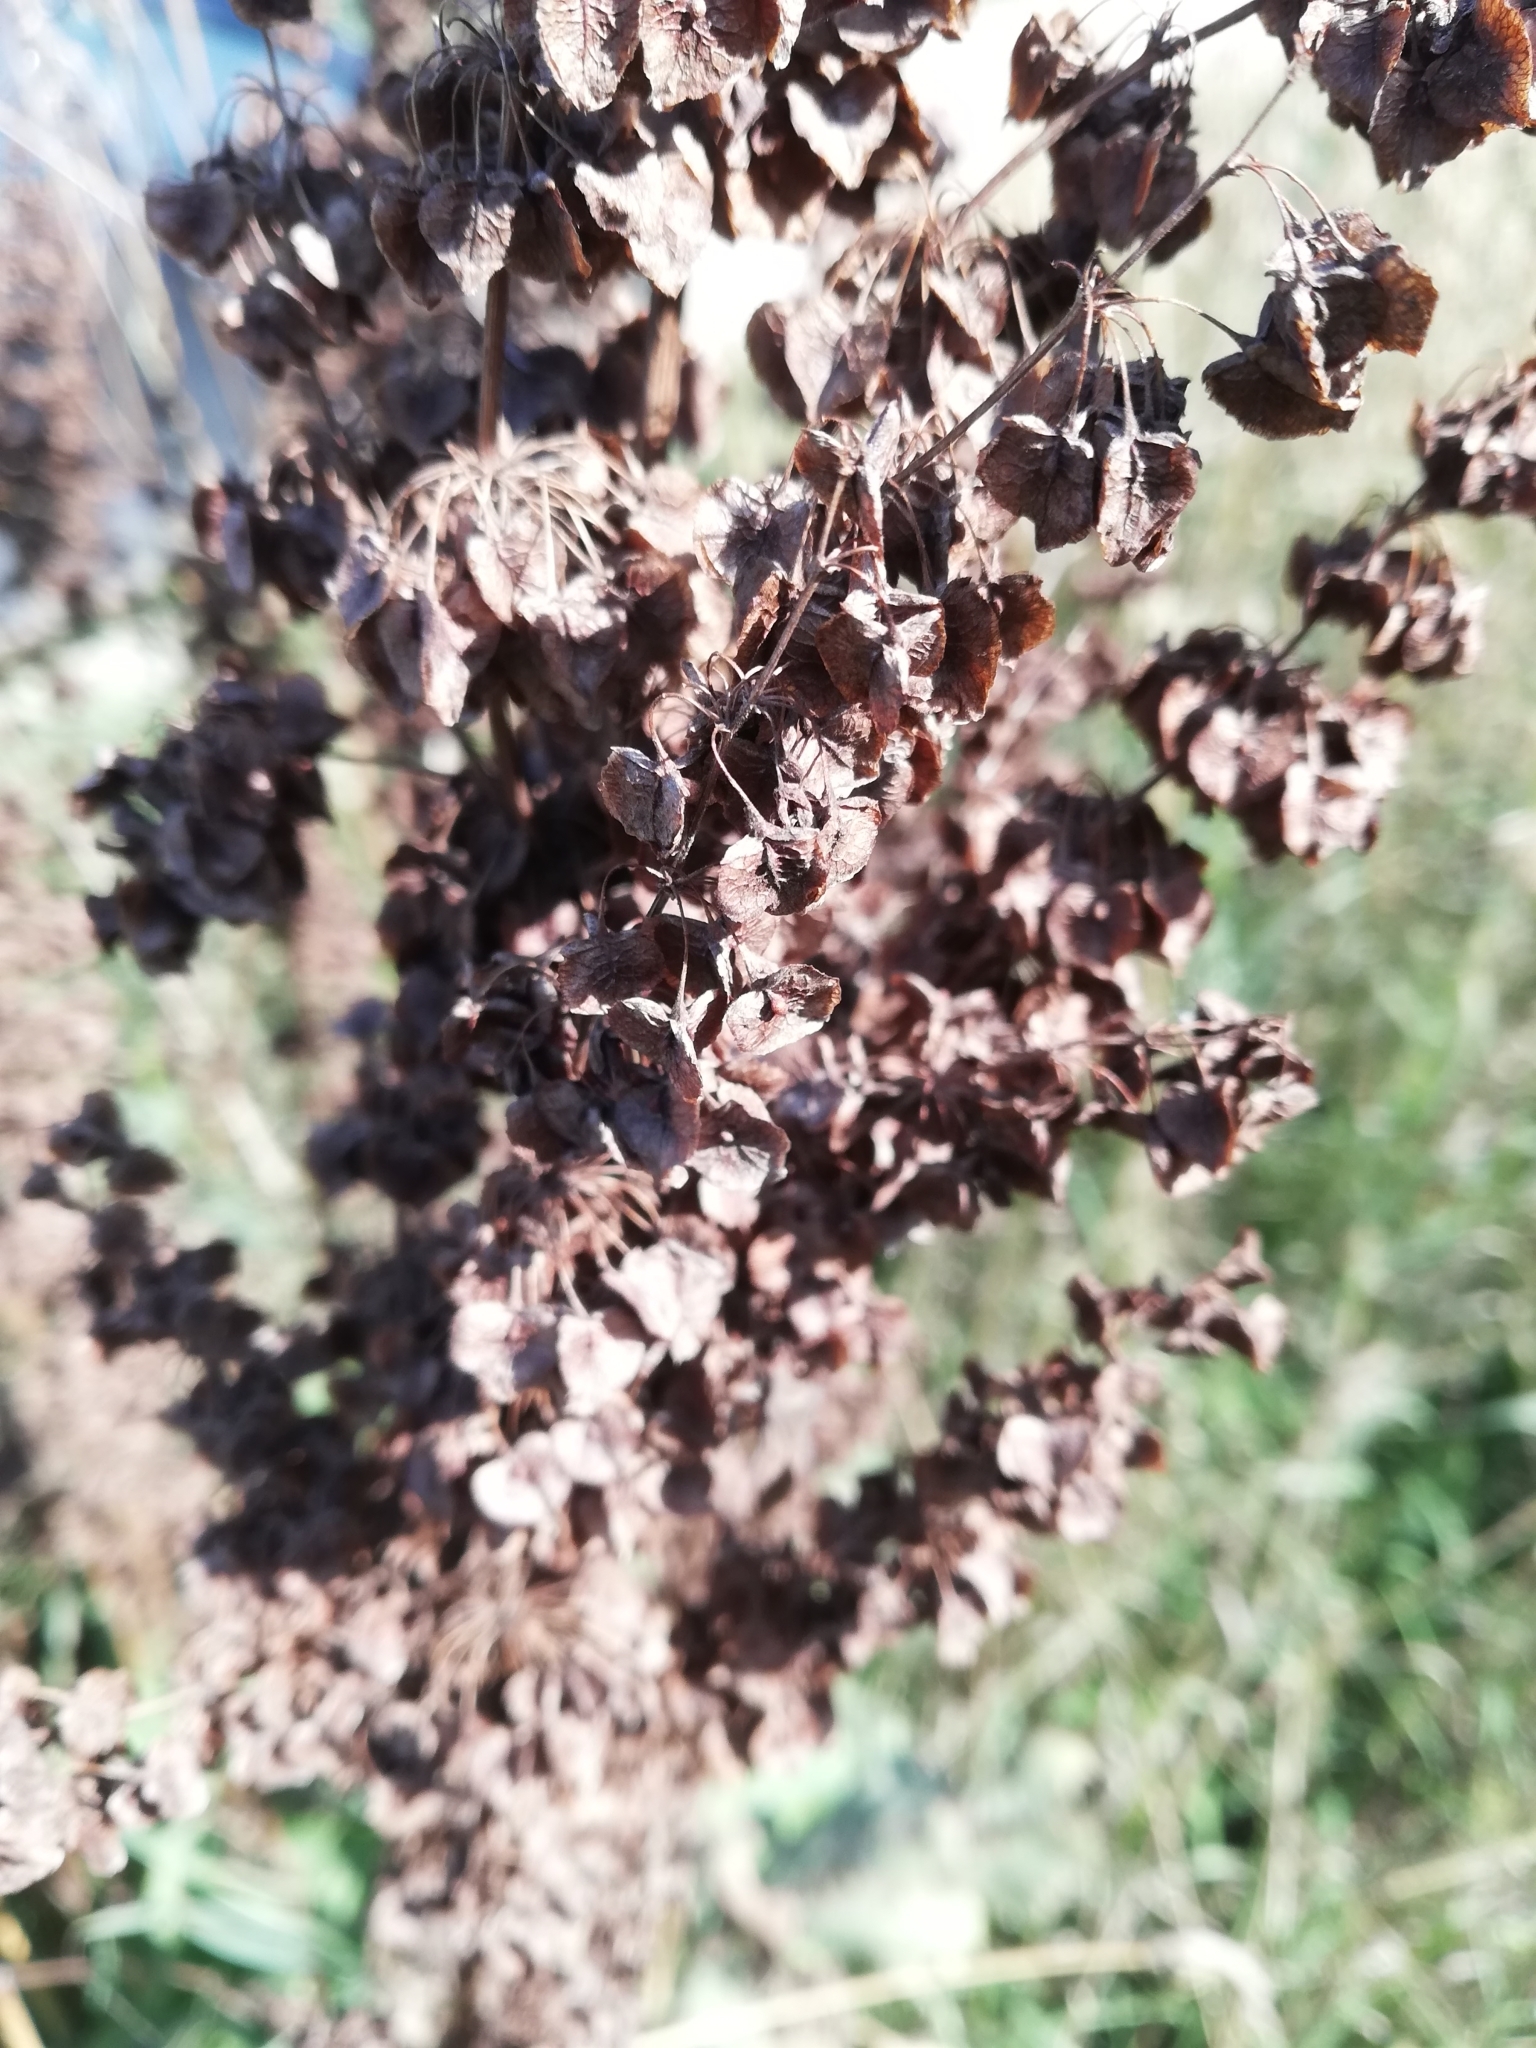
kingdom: Plantae
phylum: Tracheophyta
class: Magnoliopsida
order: Caryophyllales
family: Polygonaceae
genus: Rumex
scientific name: Rumex confertus
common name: Russian dock
